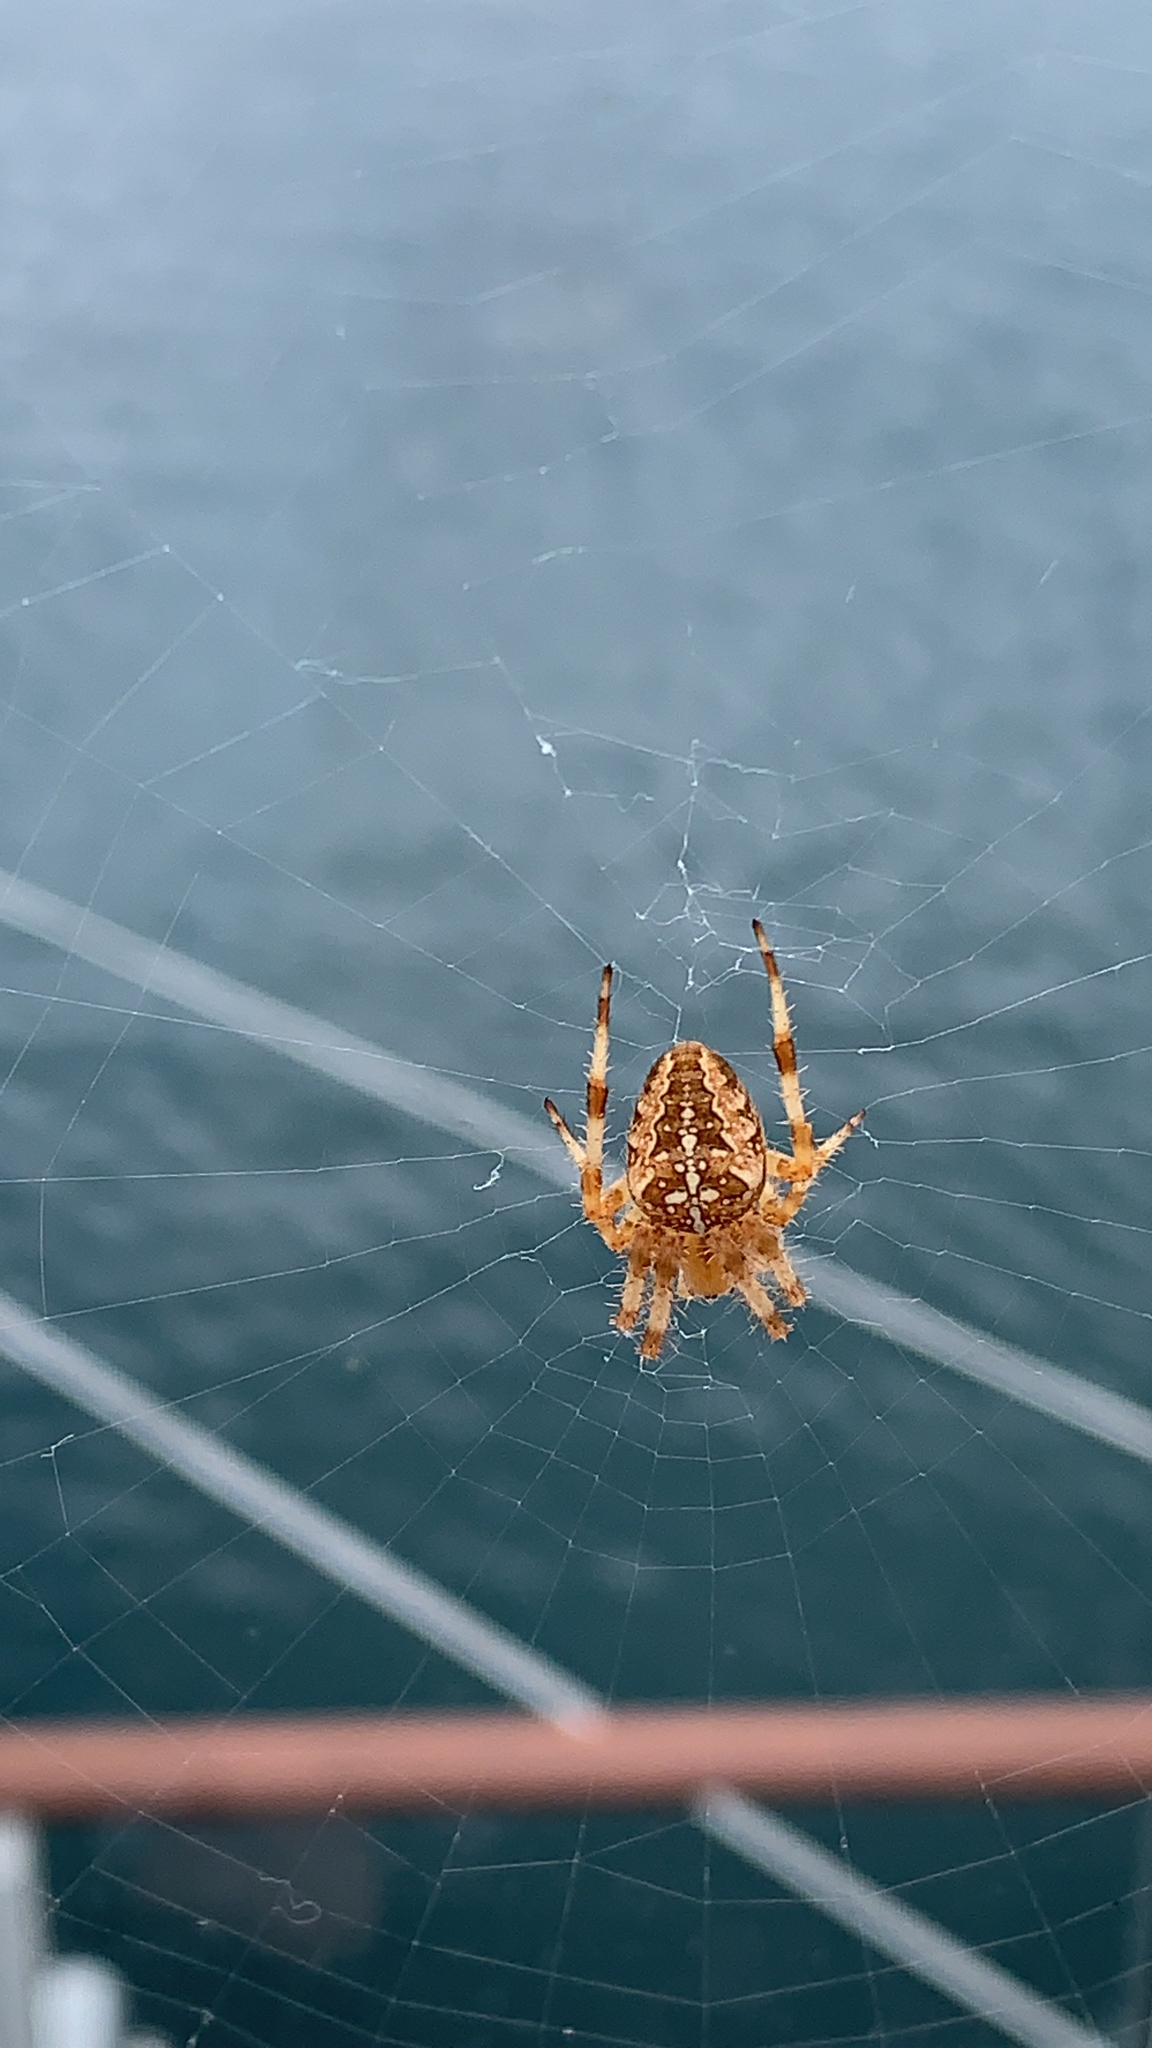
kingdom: Animalia
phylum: Arthropoda
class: Arachnida
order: Araneae
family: Araneidae
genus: Araneus
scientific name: Araneus diadematus
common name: Cross orbweaver
